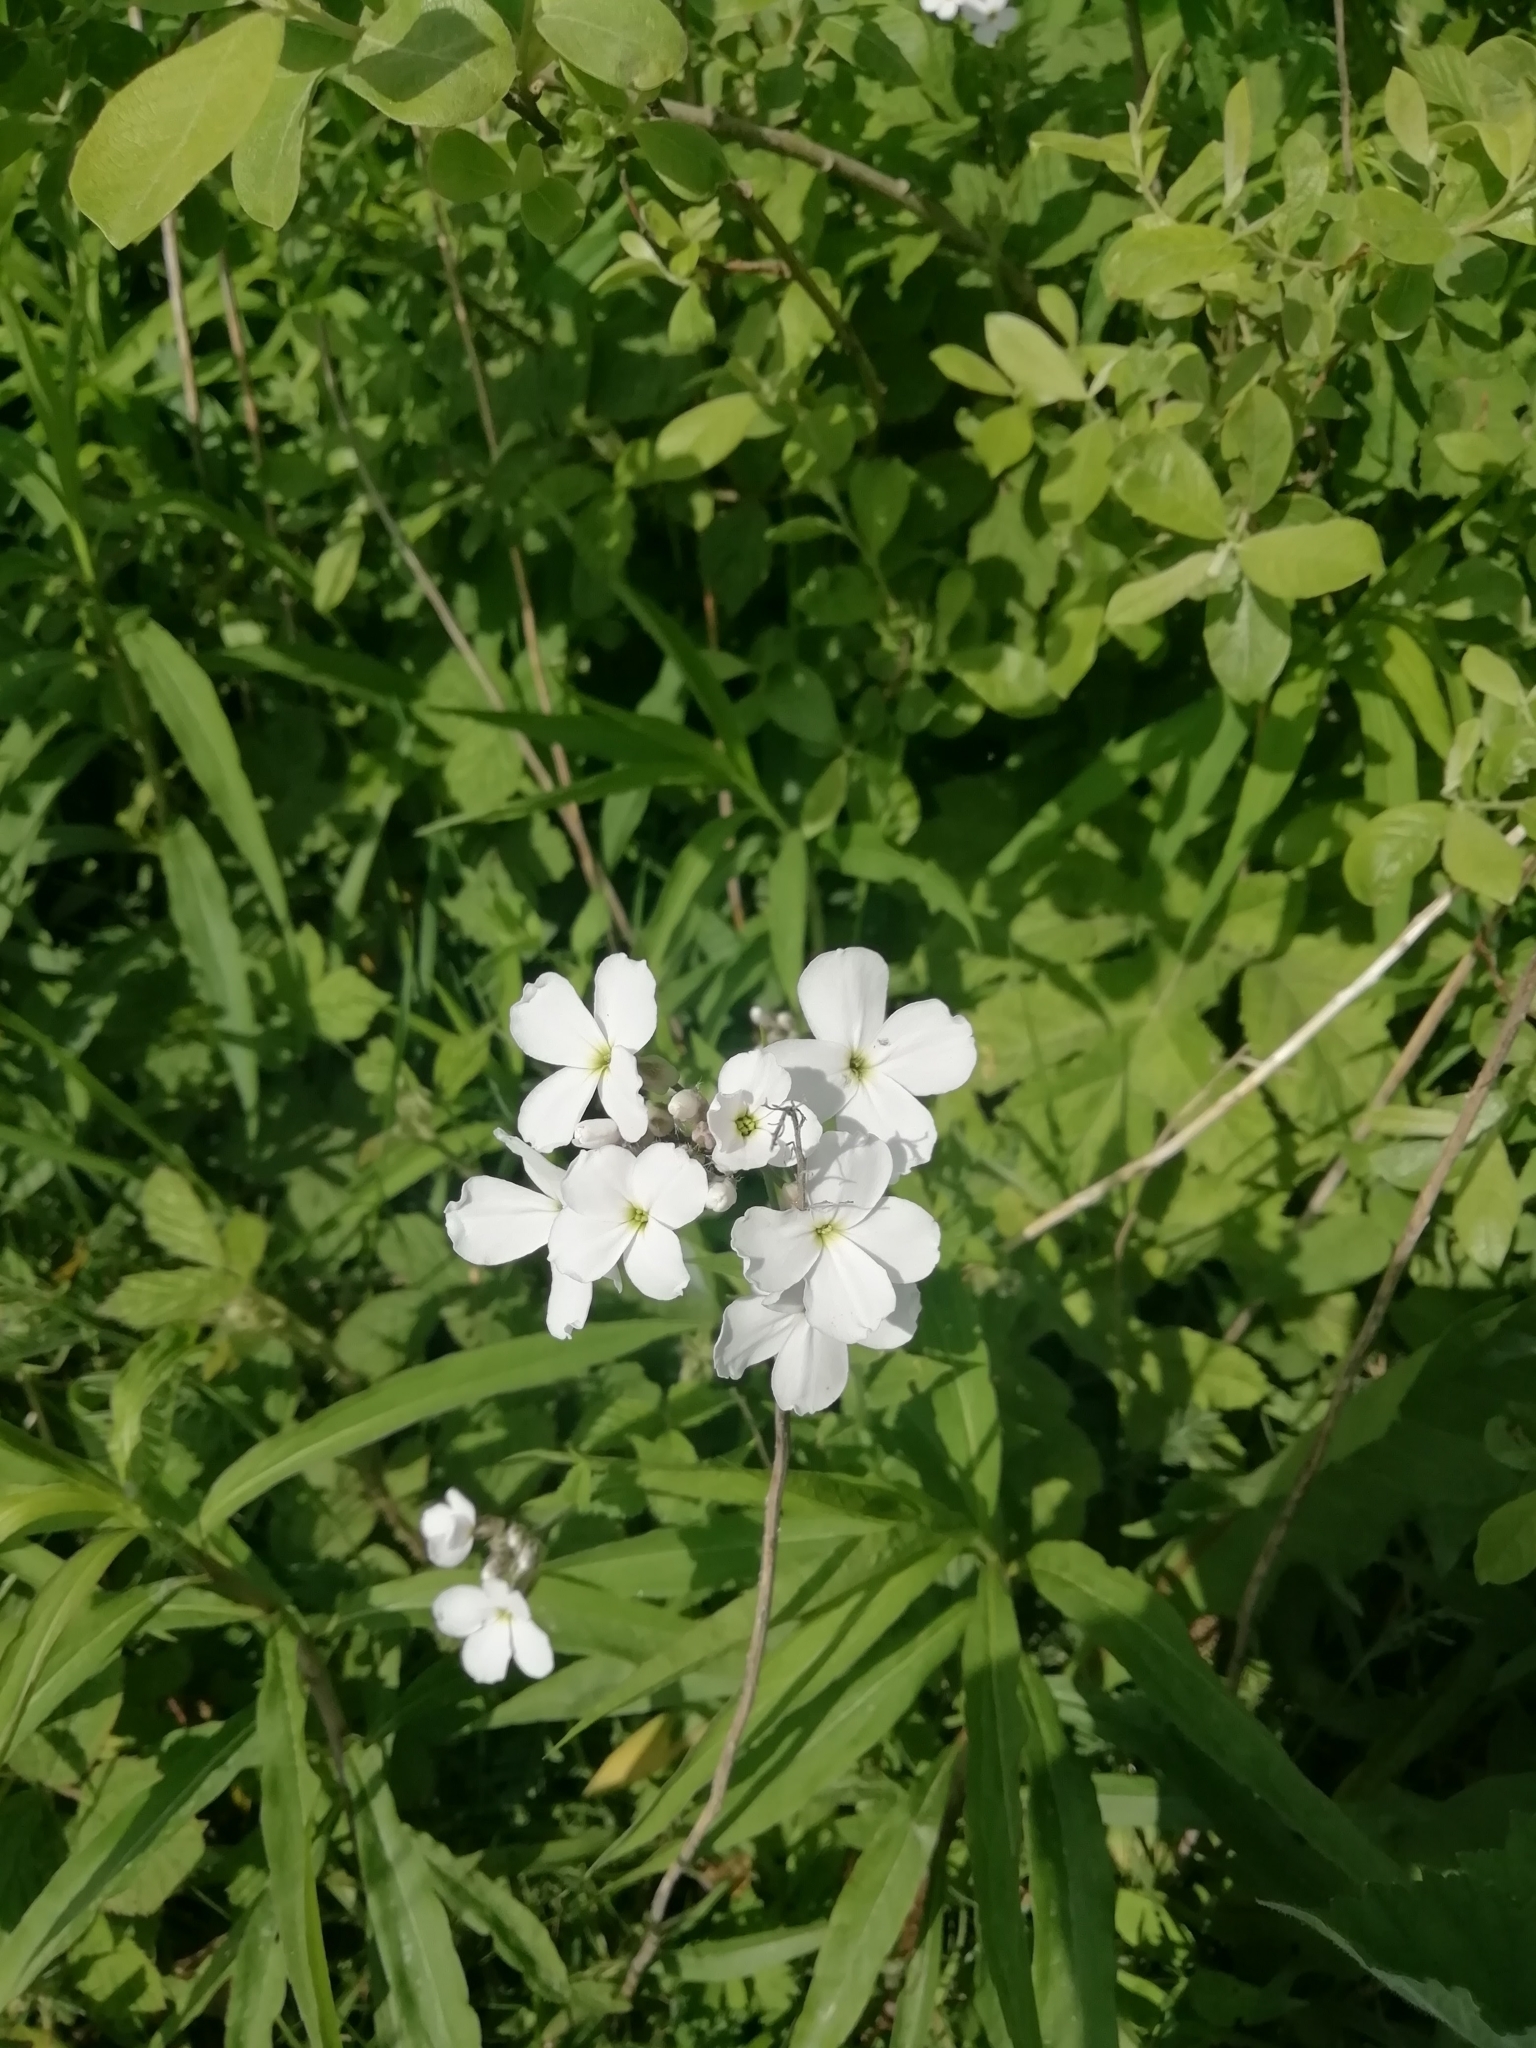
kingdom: Plantae
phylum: Tracheophyta
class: Magnoliopsida
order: Brassicales
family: Brassicaceae
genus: Cardamine
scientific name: Cardamine pratensis
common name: Cuckoo flower
